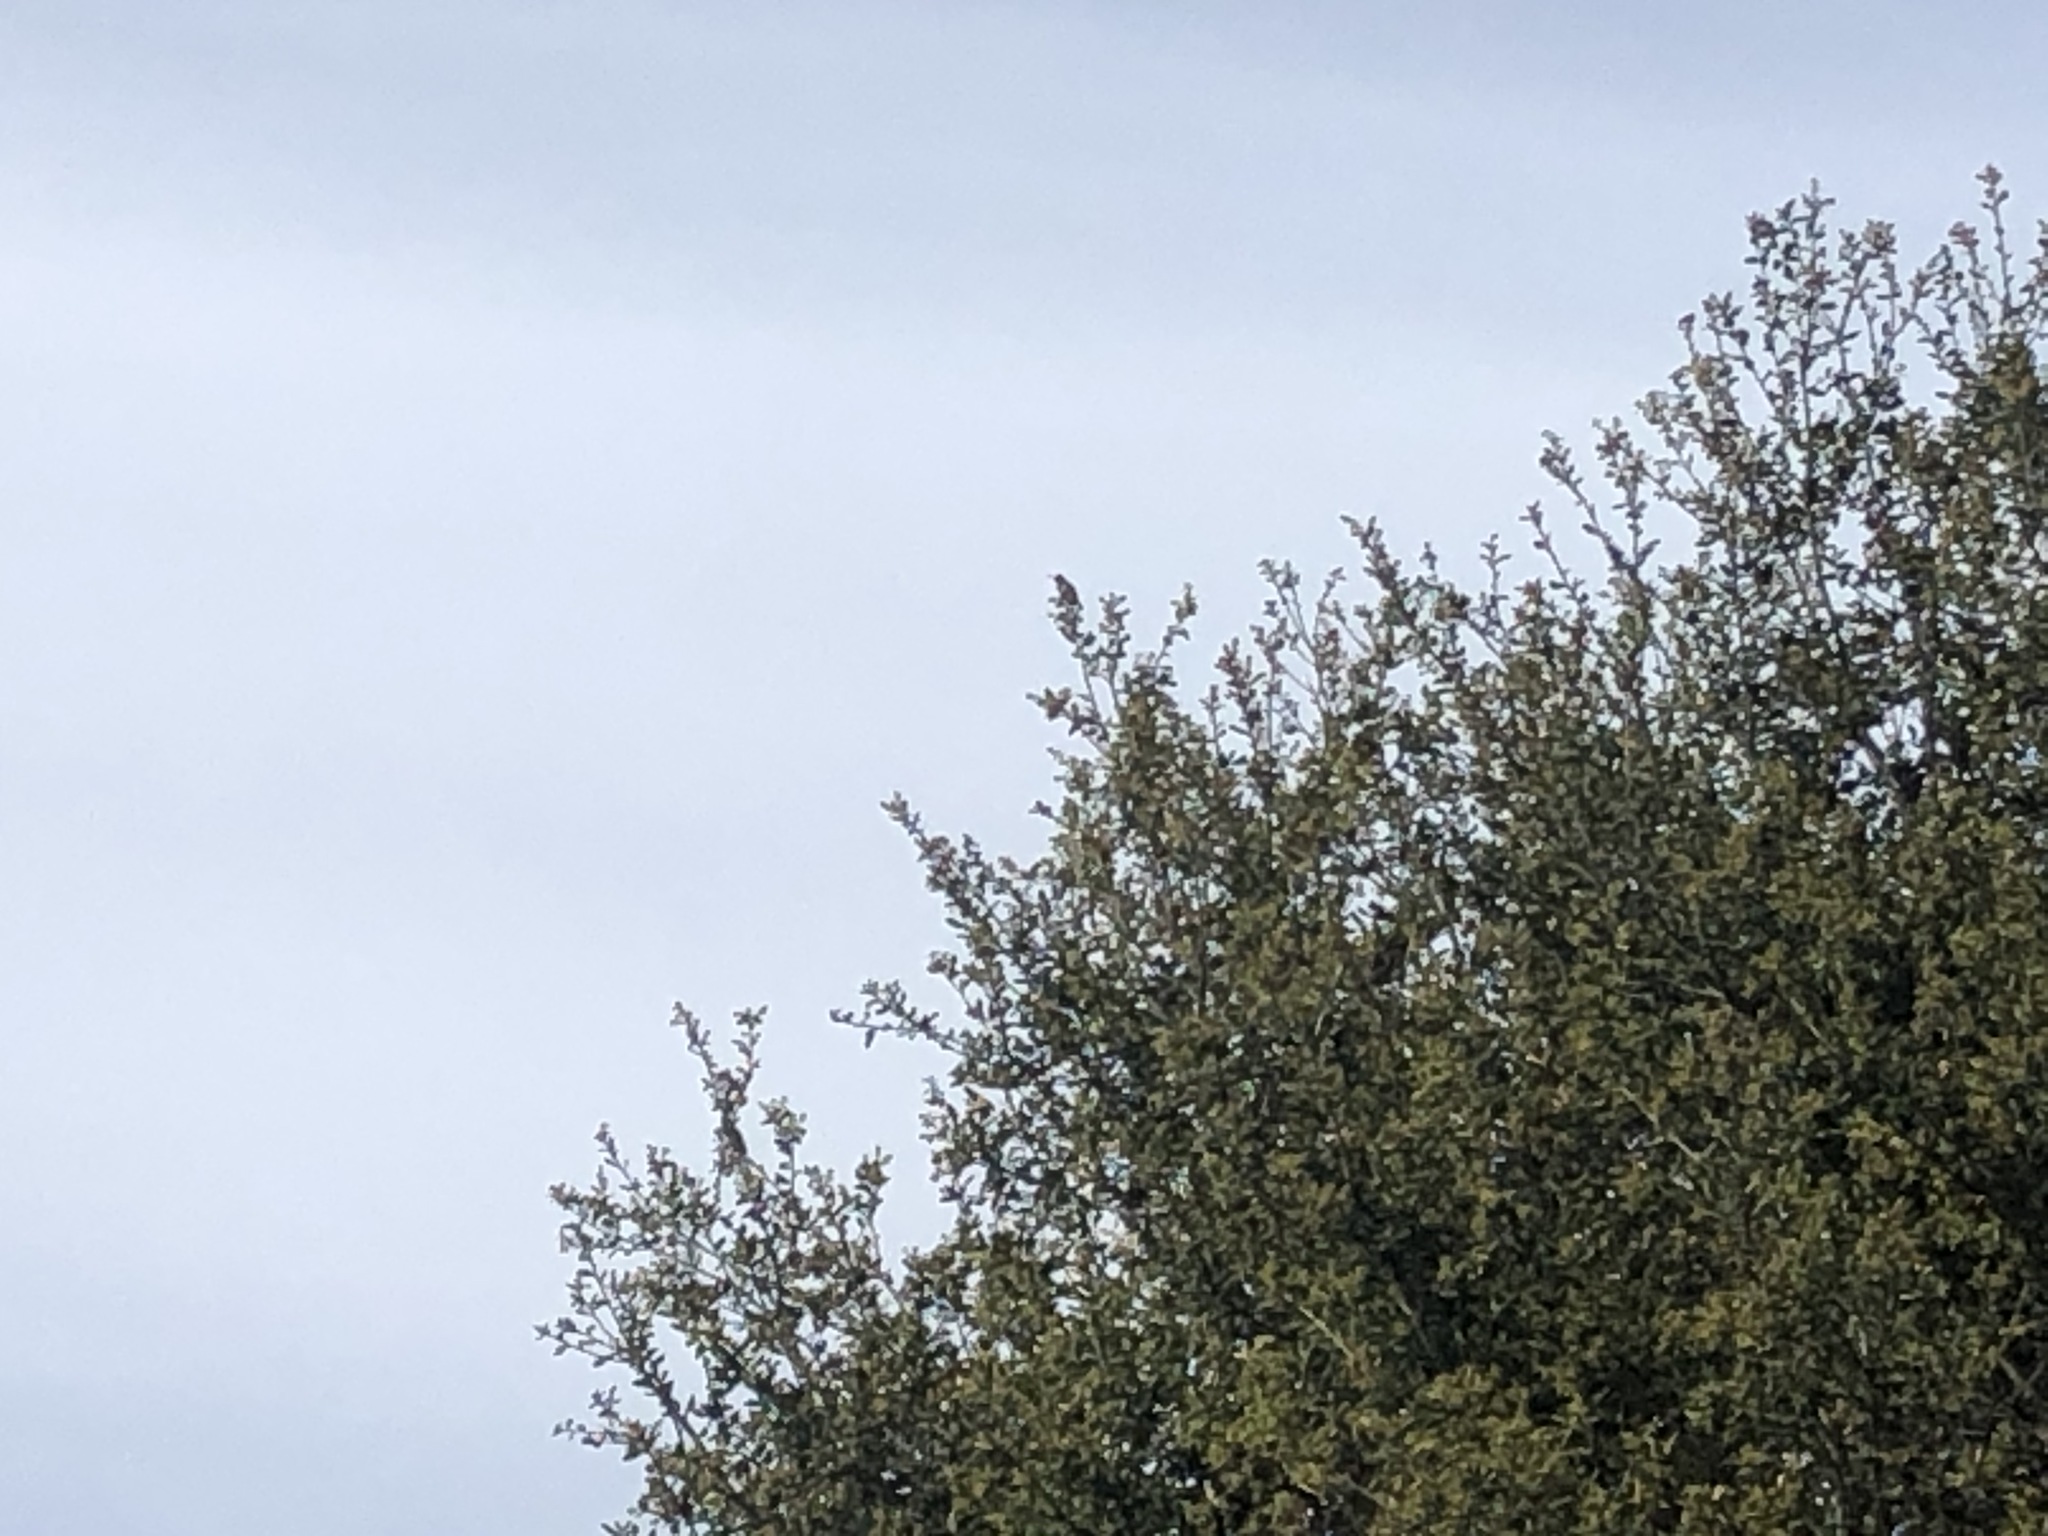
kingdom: Animalia
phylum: Chordata
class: Aves
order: Apodiformes
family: Trochilidae
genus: Calypte
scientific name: Calypte anna
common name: Anna's hummingbird
